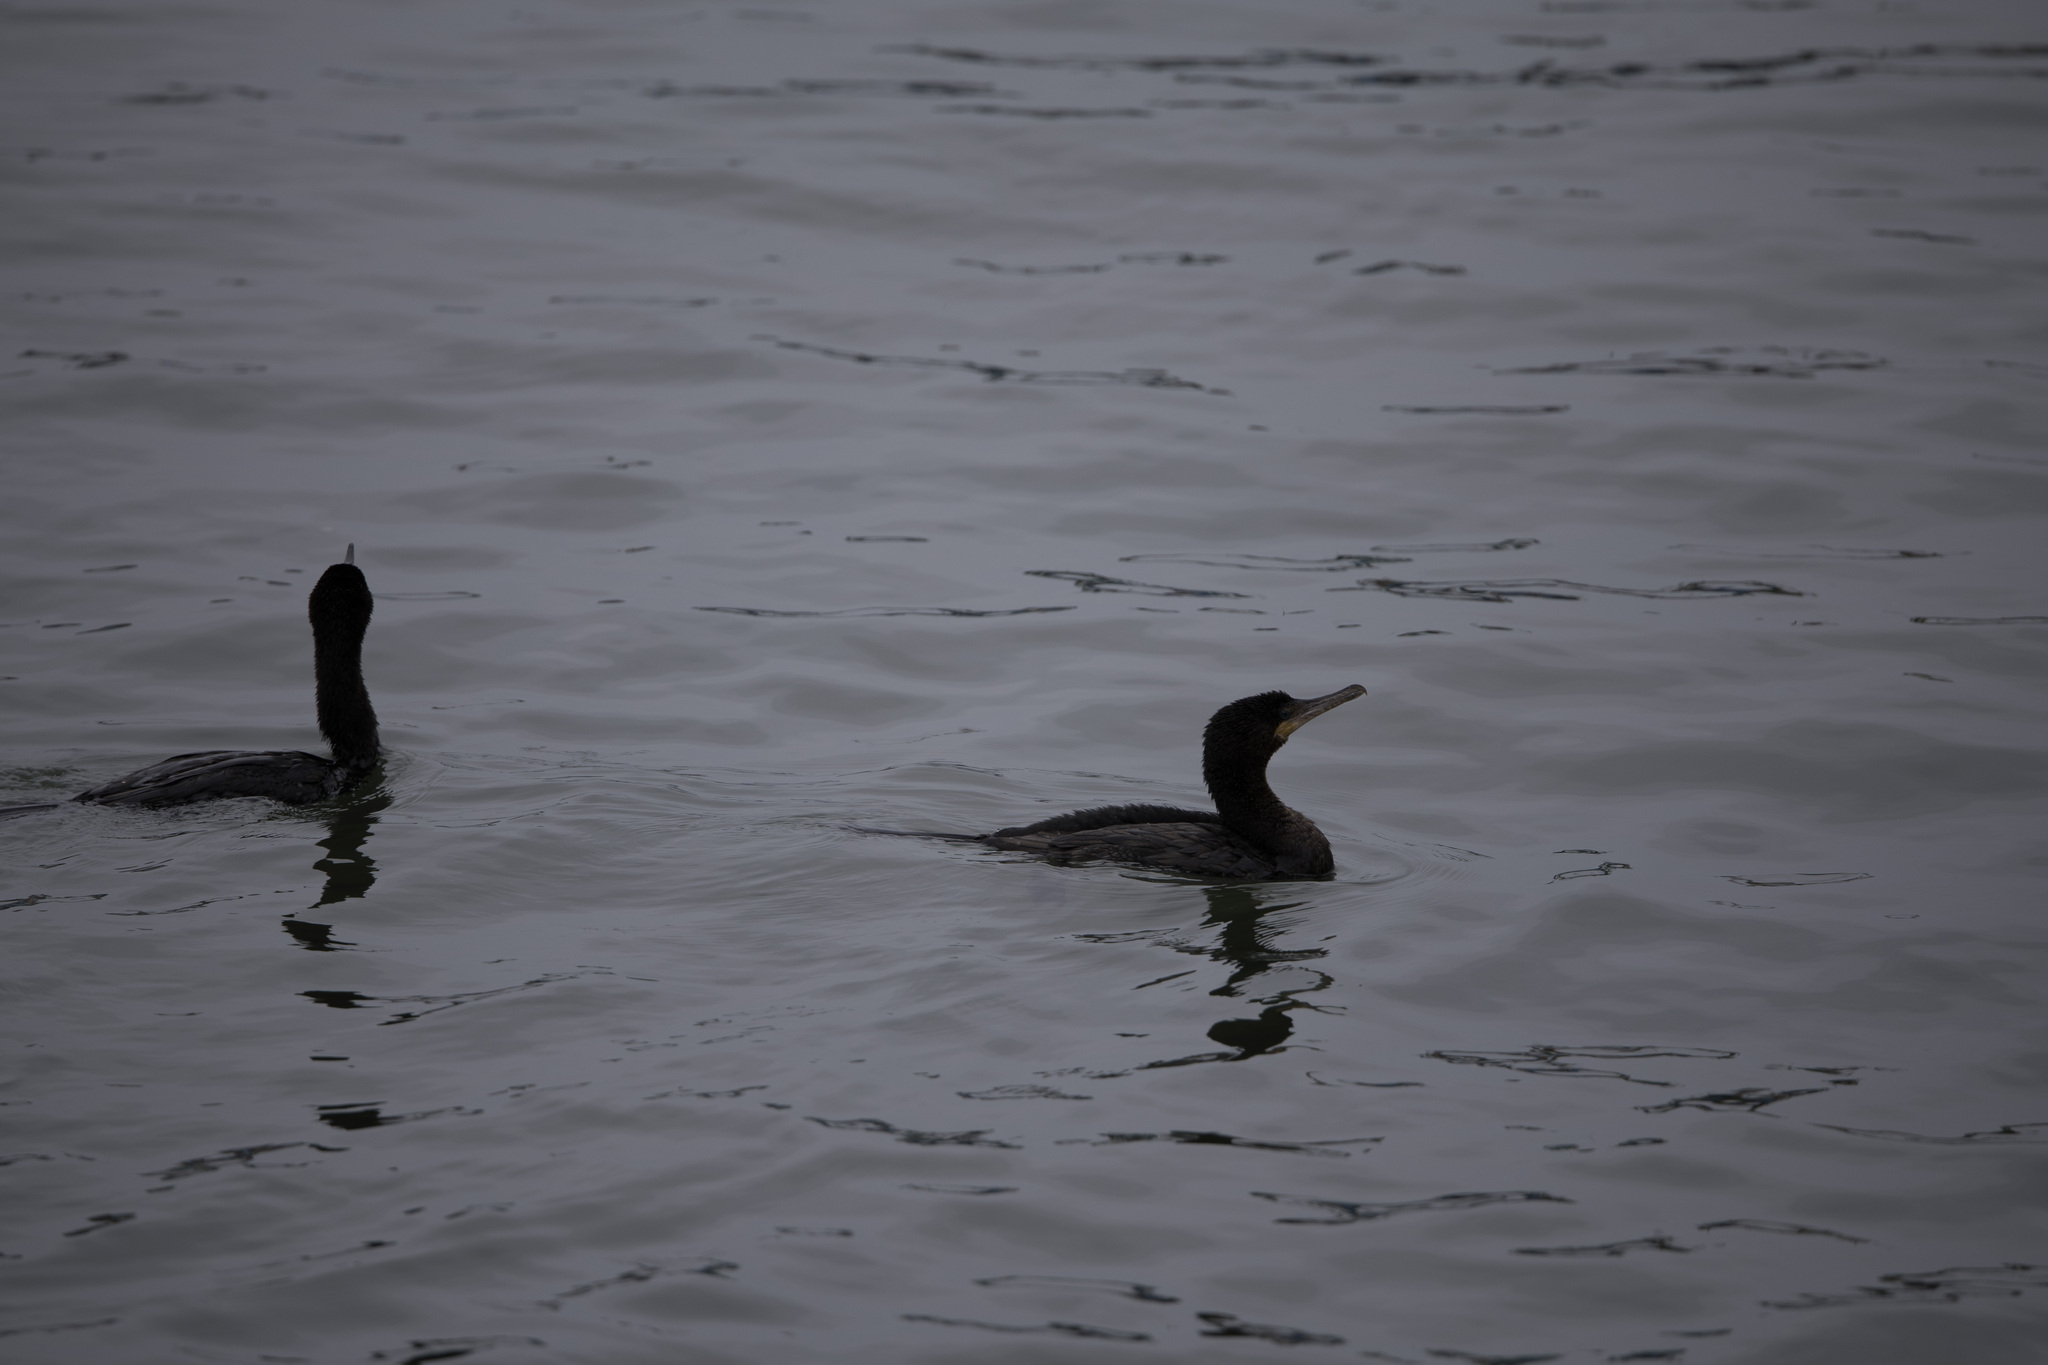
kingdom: Animalia
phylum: Chordata
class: Aves
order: Suliformes
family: Phalacrocoracidae
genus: Phalacrocorax
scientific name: Phalacrocorax brasilianus
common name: Neotropic cormorant
